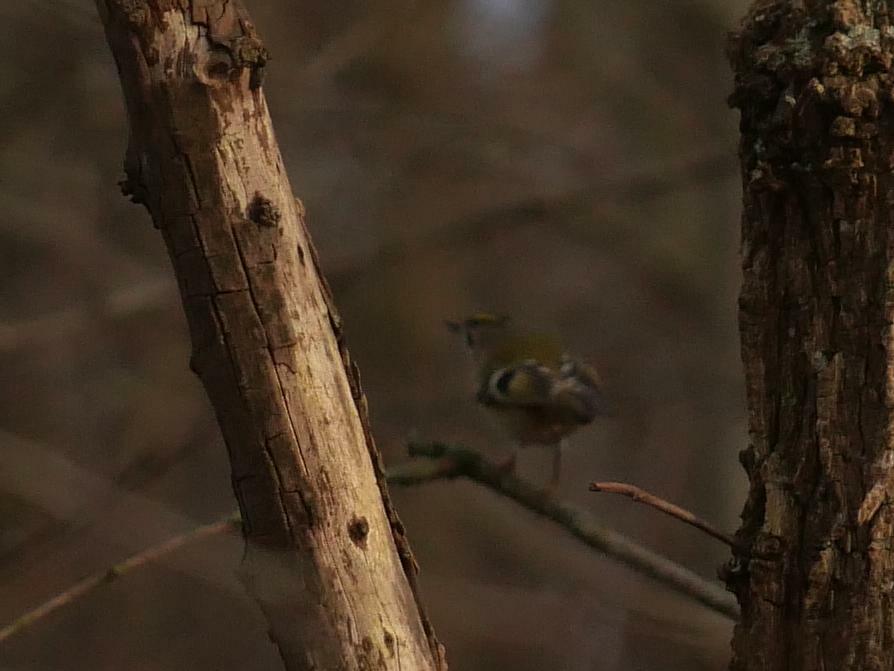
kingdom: Animalia
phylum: Chordata
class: Aves
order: Passeriformes
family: Regulidae
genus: Regulus
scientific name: Regulus regulus
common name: Goldcrest
